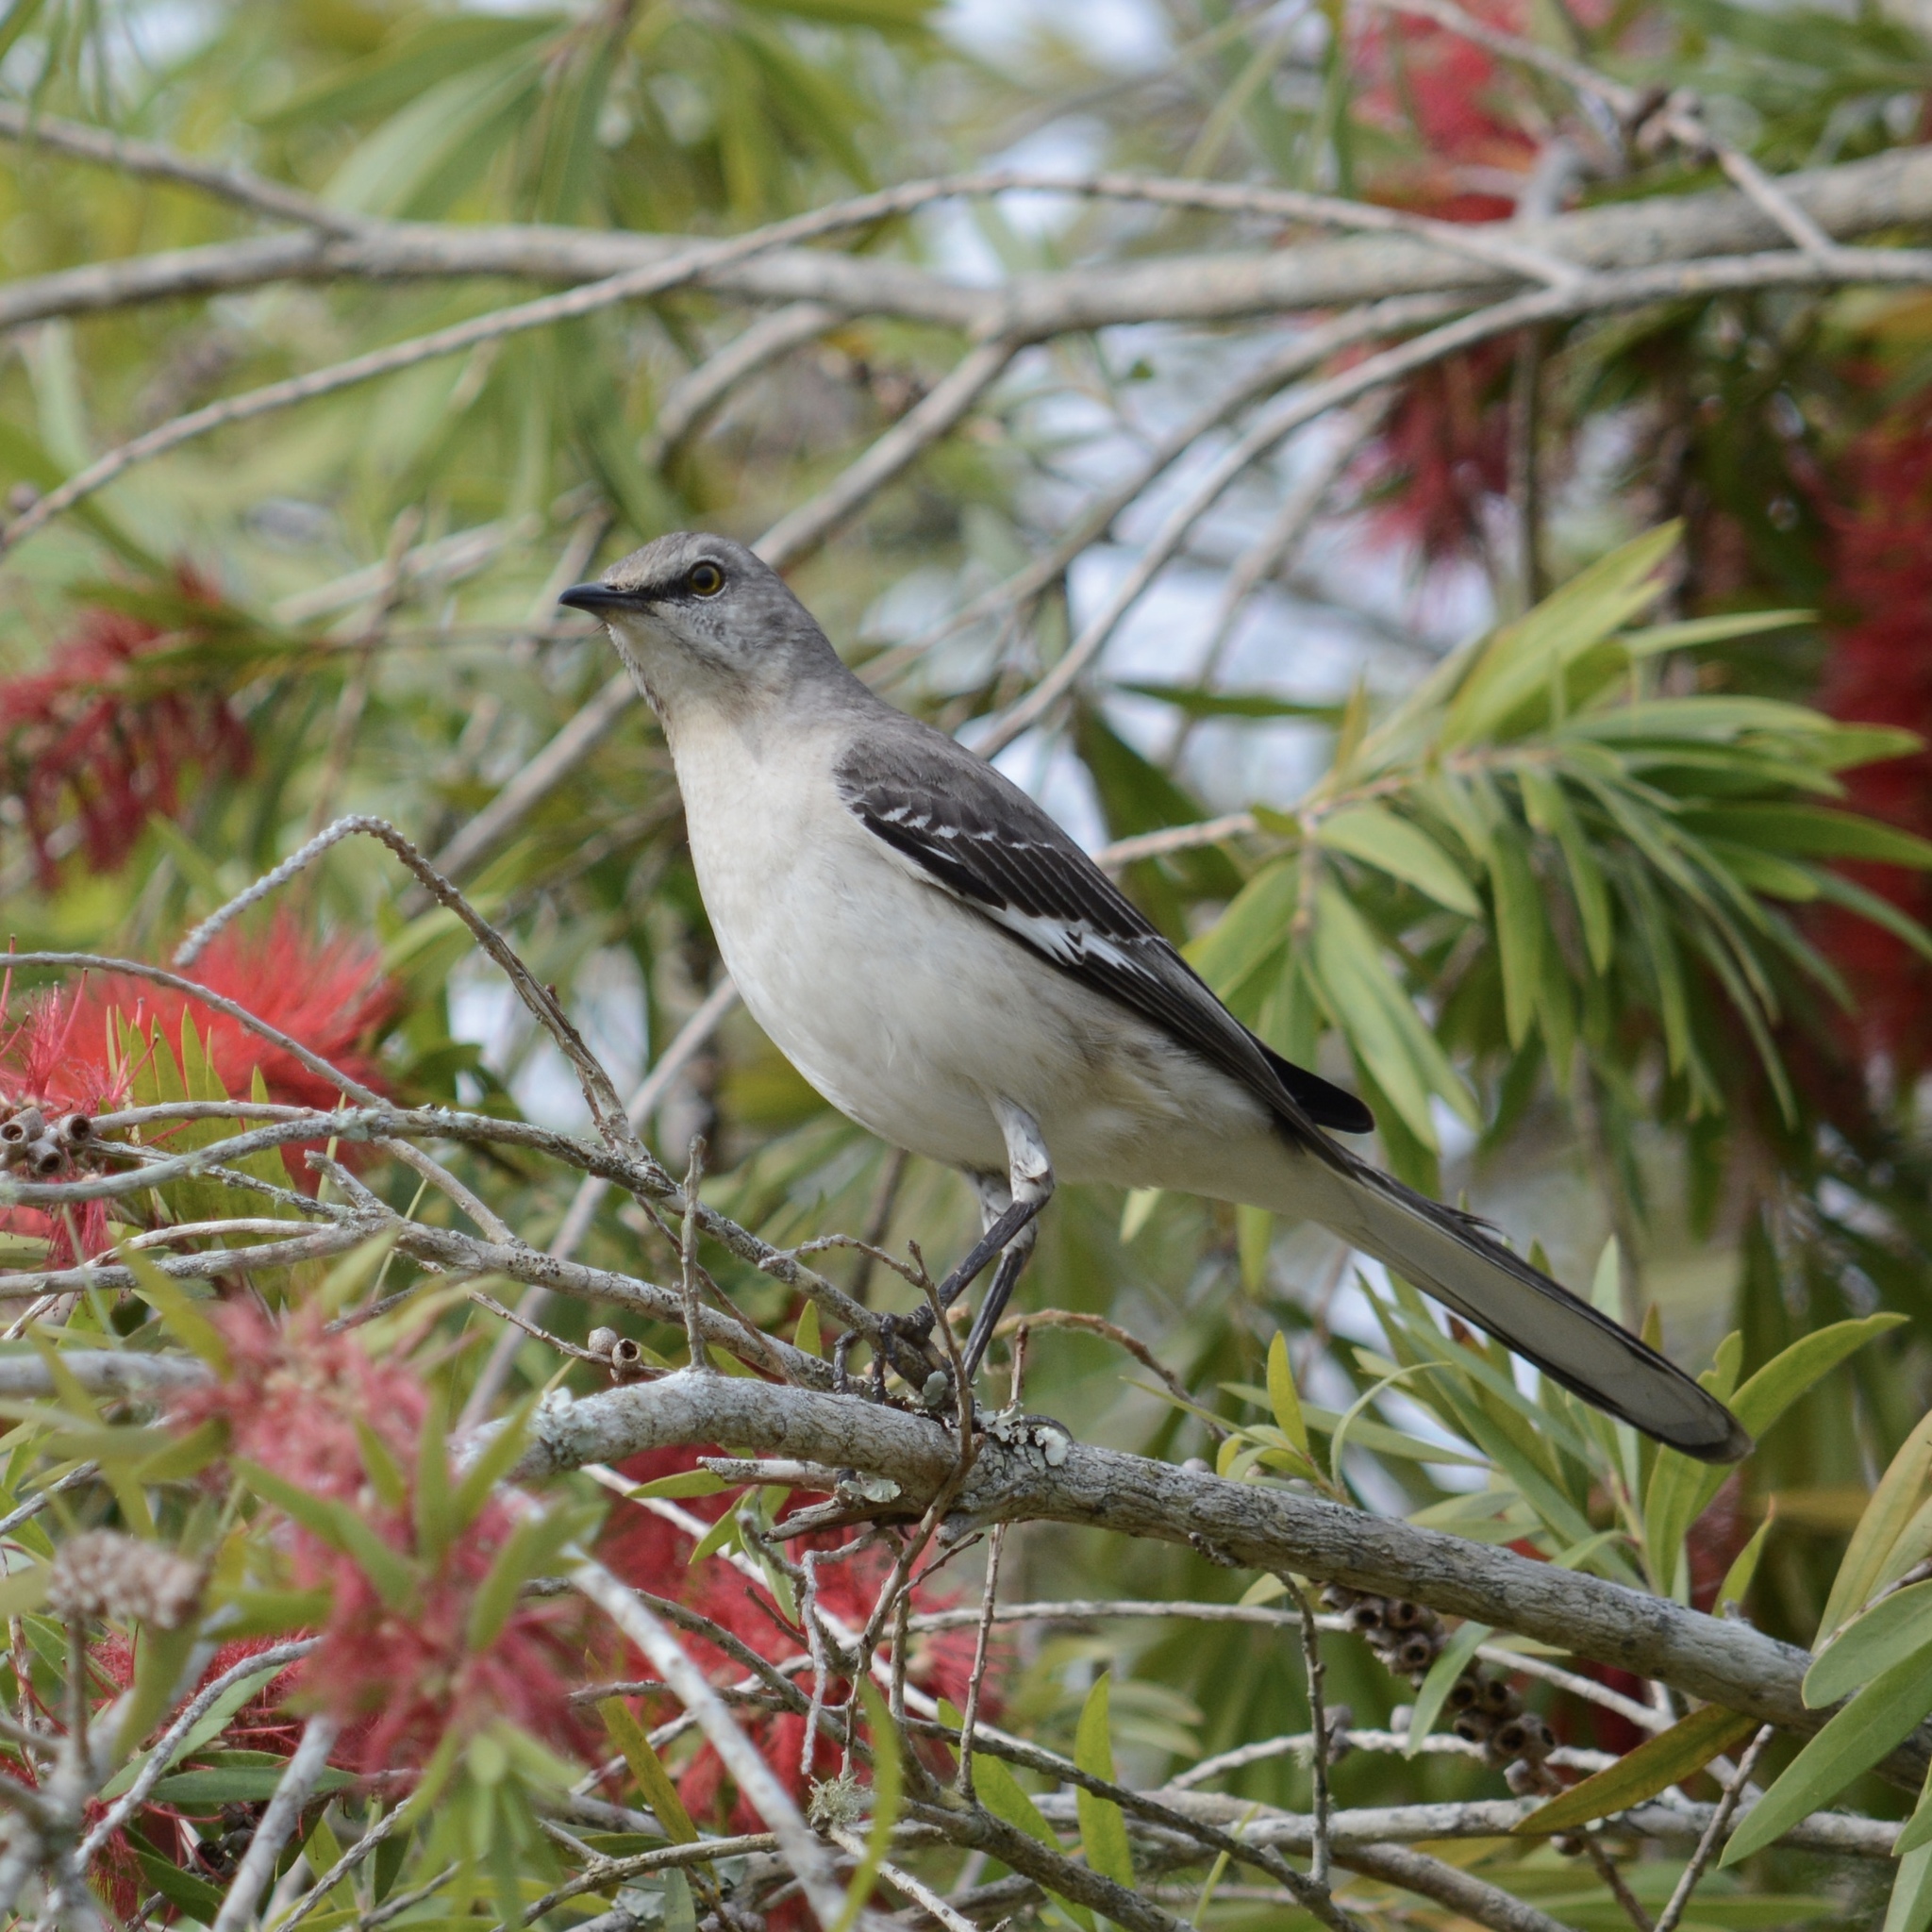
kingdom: Animalia
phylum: Chordata
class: Aves
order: Passeriformes
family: Mimidae
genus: Mimus
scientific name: Mimus polyglottos
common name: Northern mockingbird
